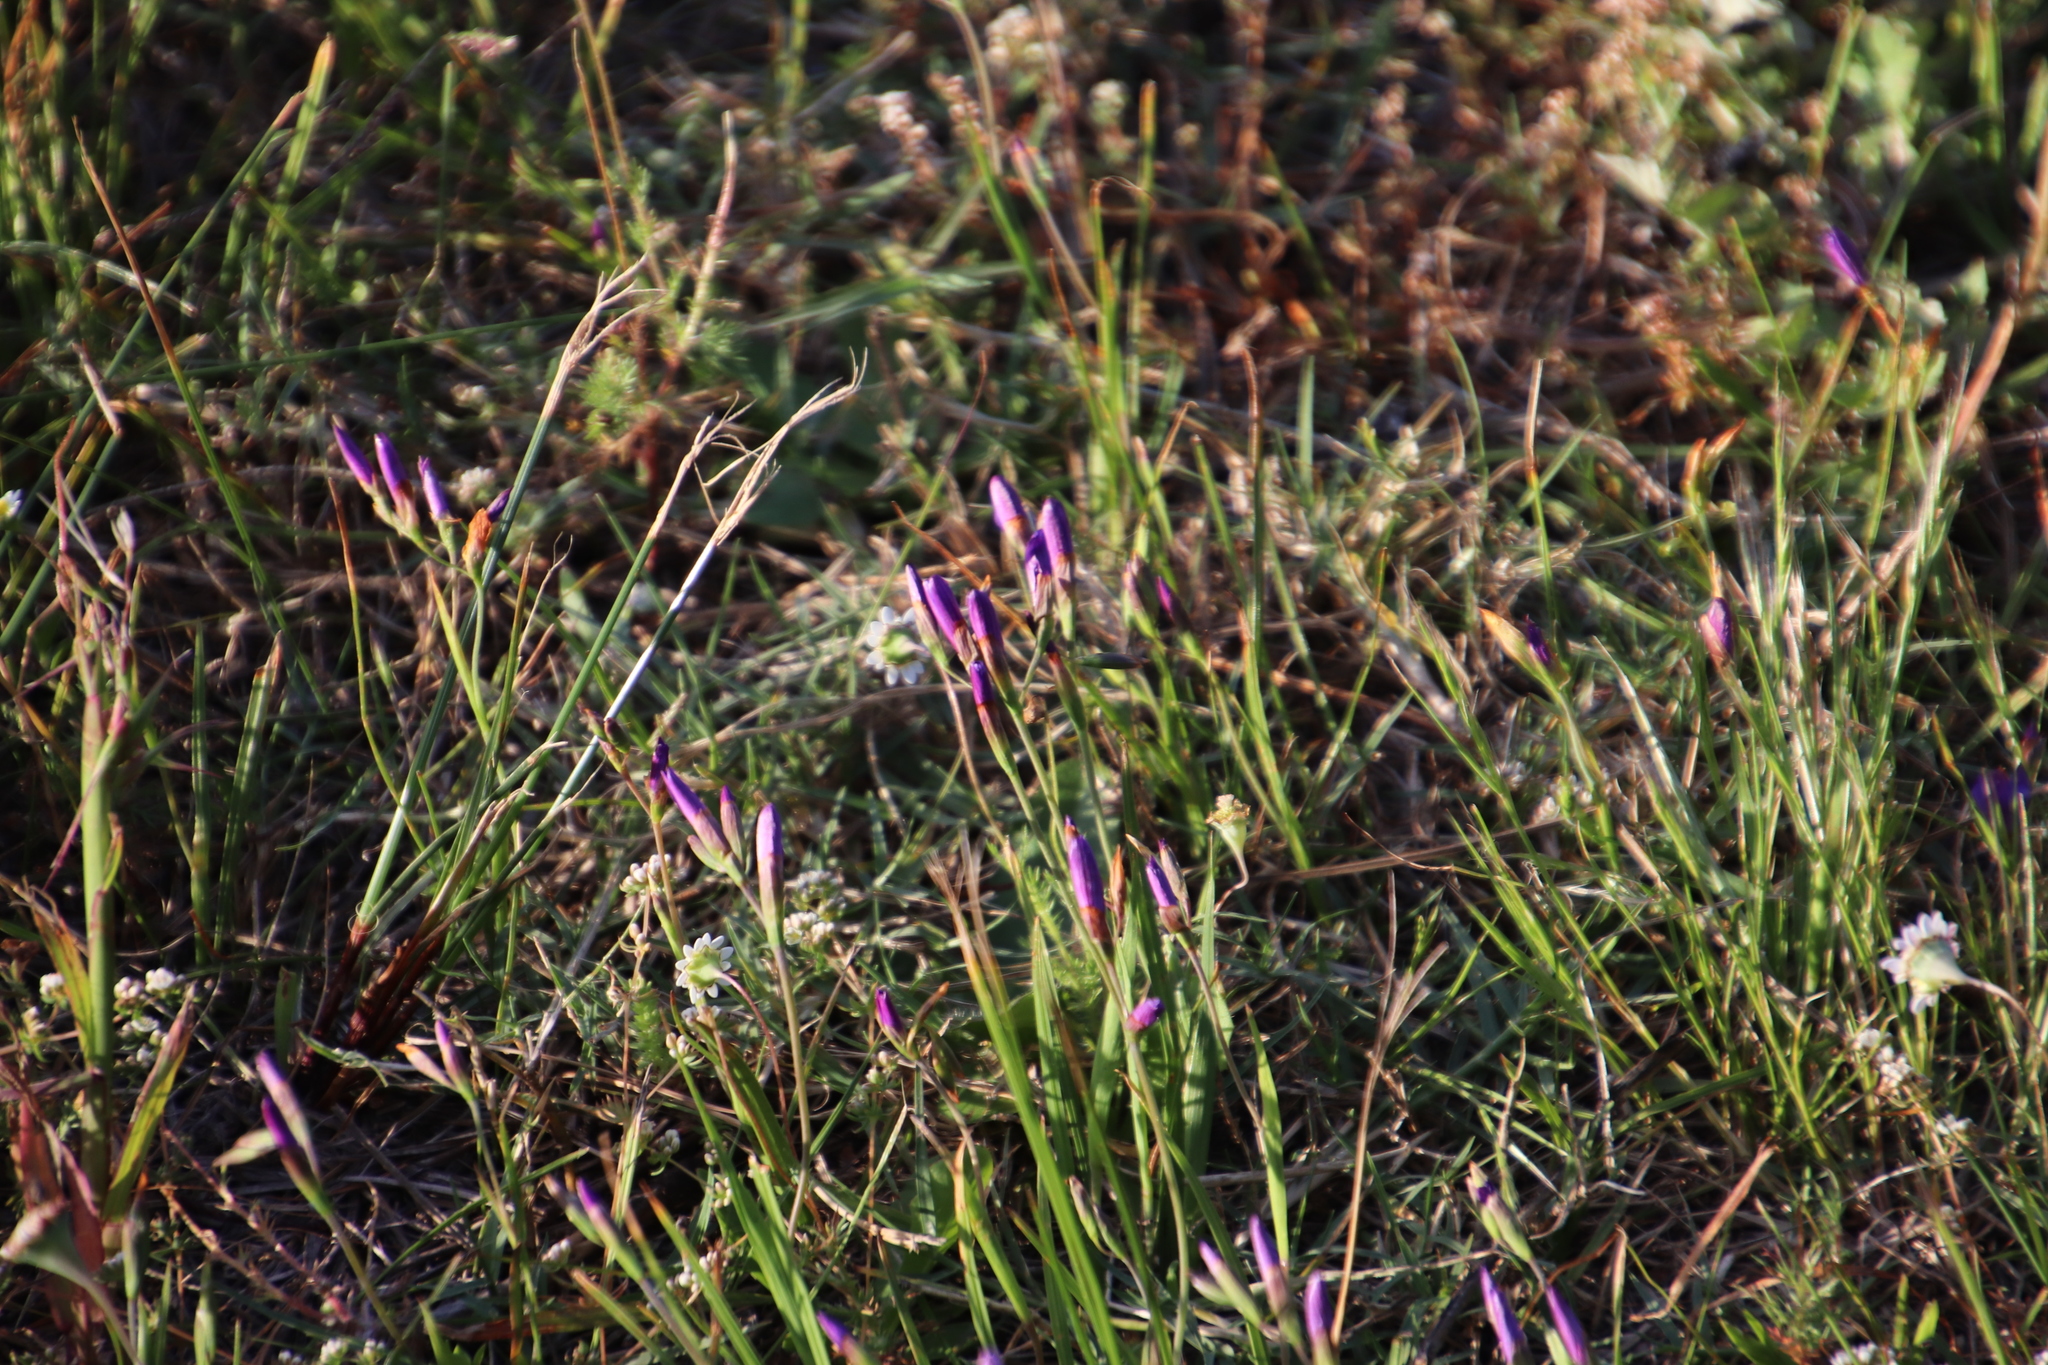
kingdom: Plantae
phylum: Tracheophyta
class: Liliopsida
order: Asparagales
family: Iridaceae
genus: Geissorhiza
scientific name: Geissorhiza aspera
